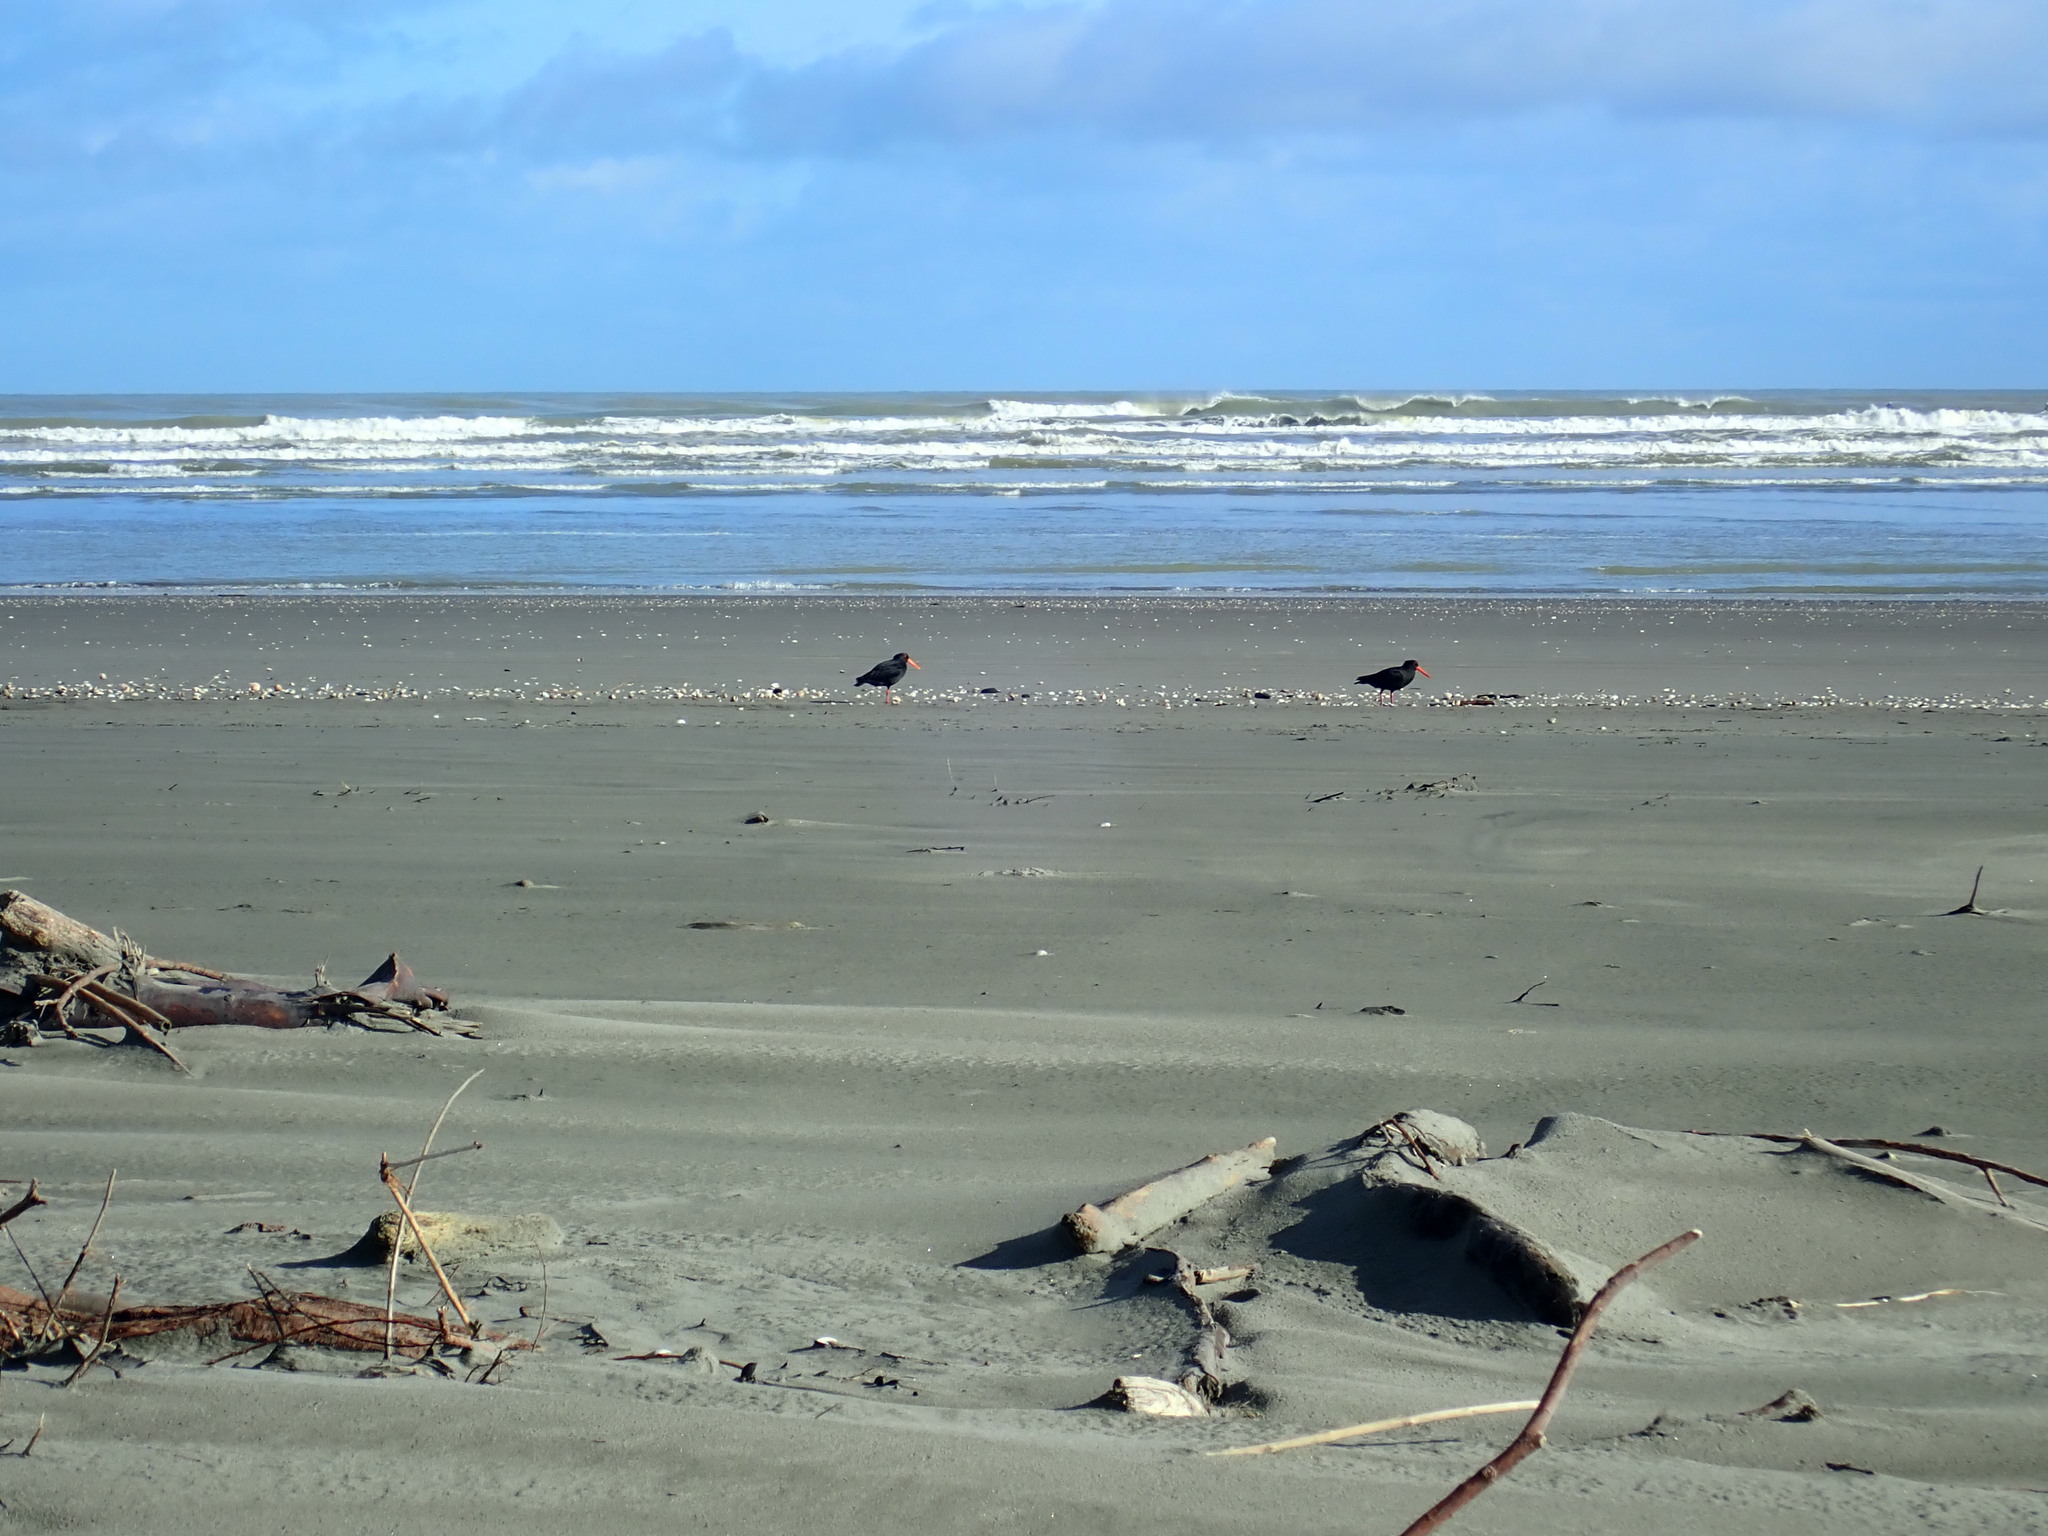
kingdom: Animalia
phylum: Chordata
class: Aves
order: Charadriiformes
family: Haematopodidae
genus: Haematopus
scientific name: Haematopus unicolor
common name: Variable oystercatcher
